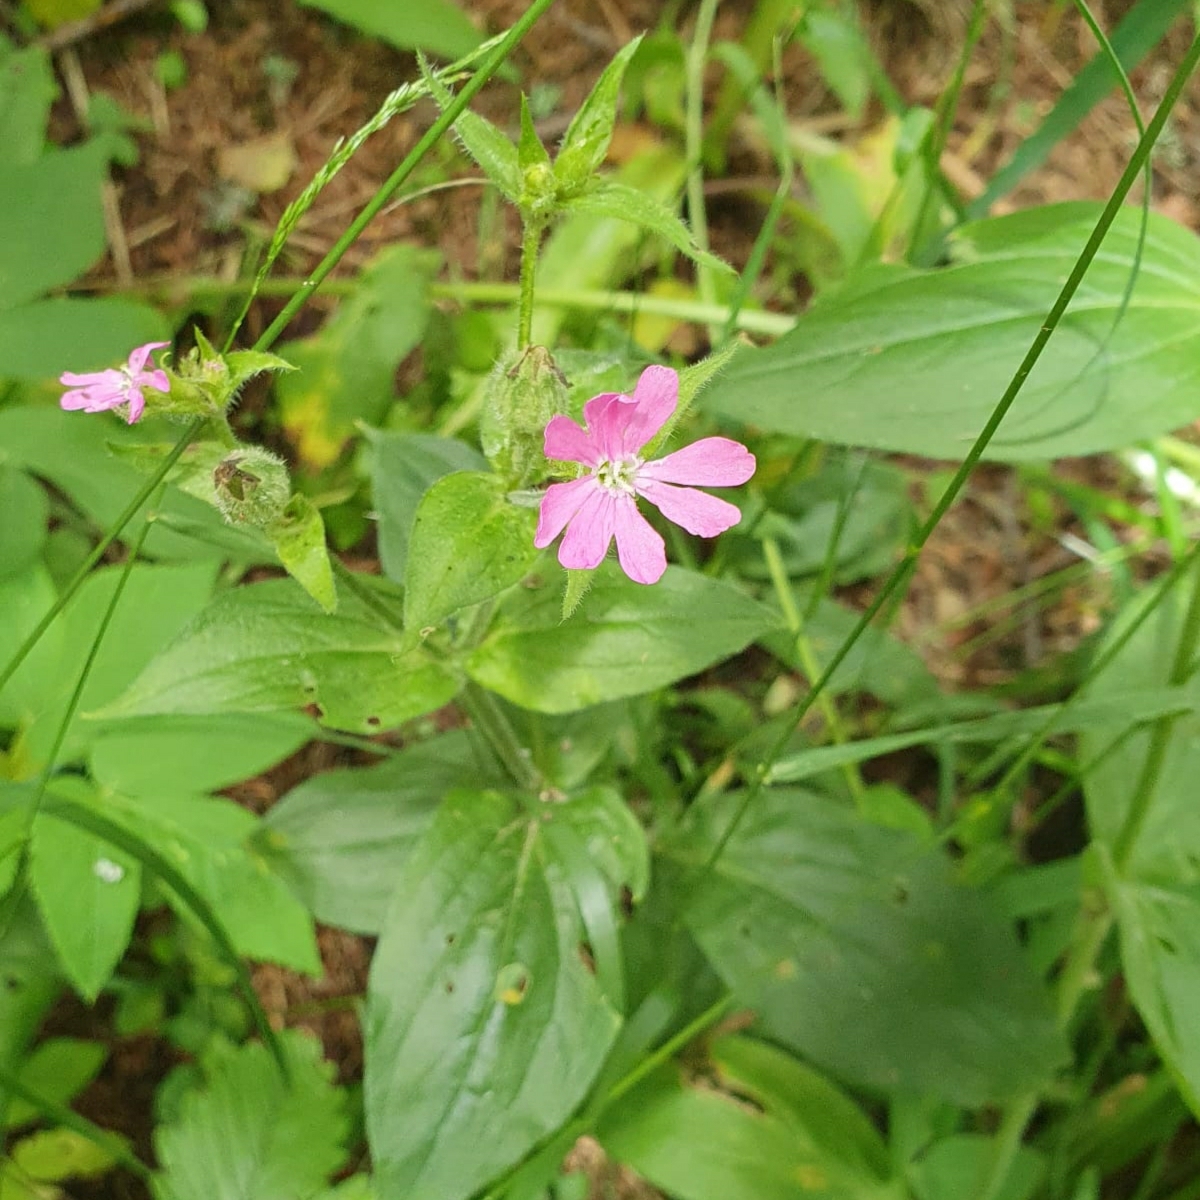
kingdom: Plantae
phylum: Tracheophyta
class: Magnoliopsida
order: Caryophyllales
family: Caryophyllaceae
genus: Silene
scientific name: Silene dioica
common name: Red campion
